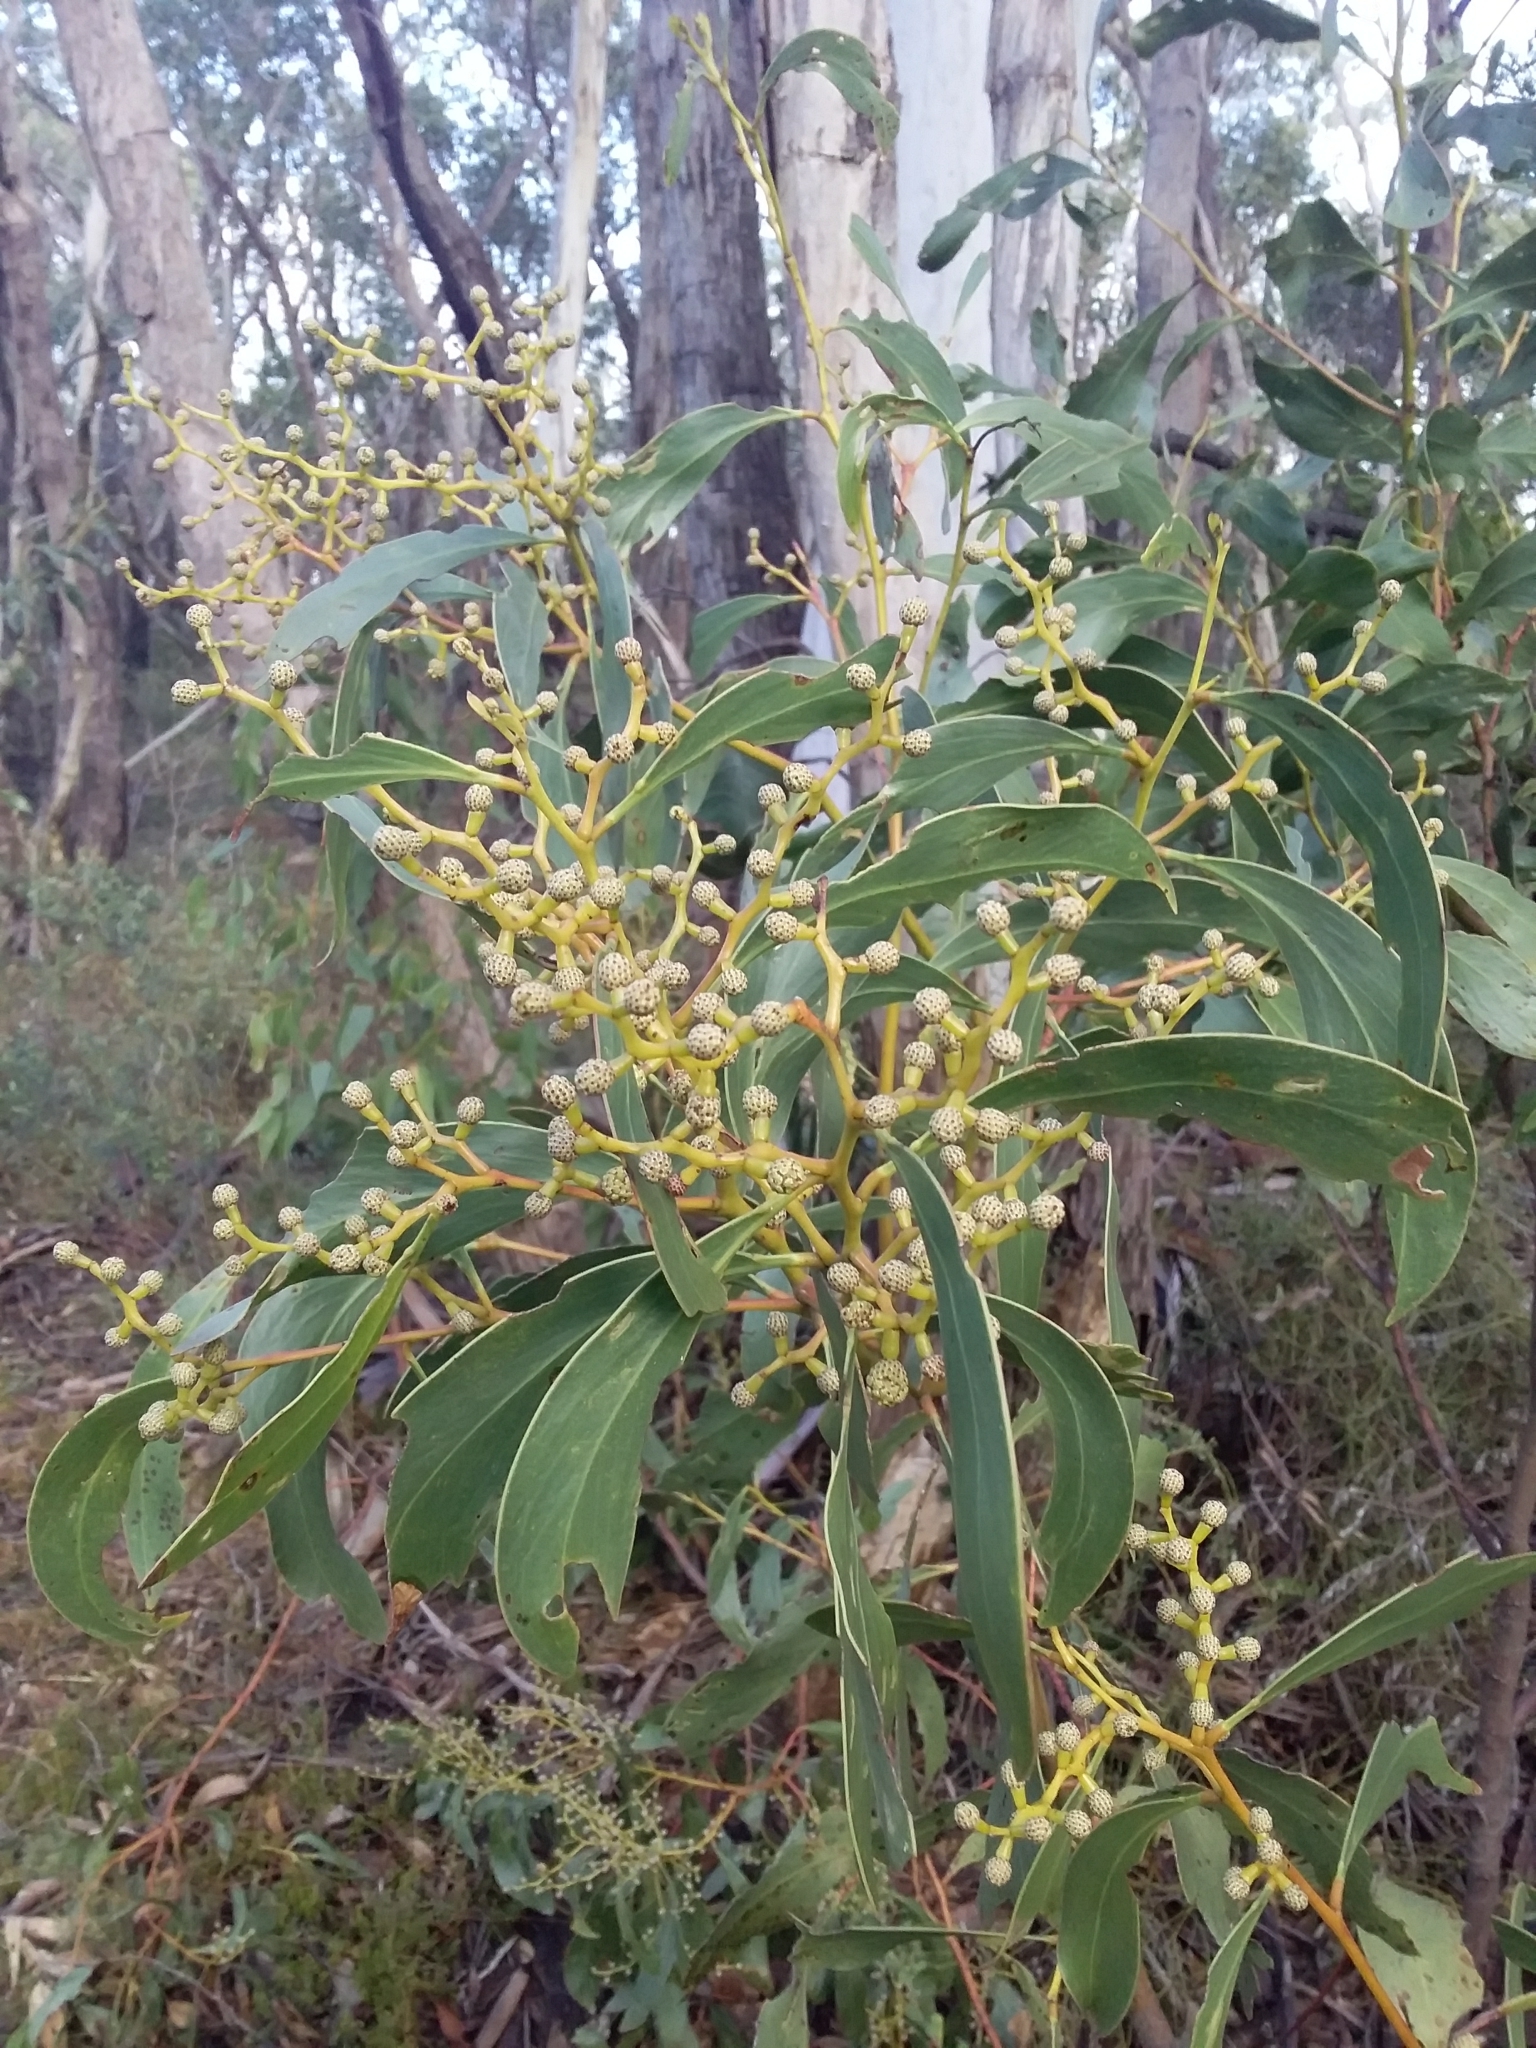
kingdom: Plantae
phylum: Tracheophyta
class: Magnoliopsida
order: Fabales
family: Fabaceae
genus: Acacia
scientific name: Acacia pycnantha
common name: Golden wattle
